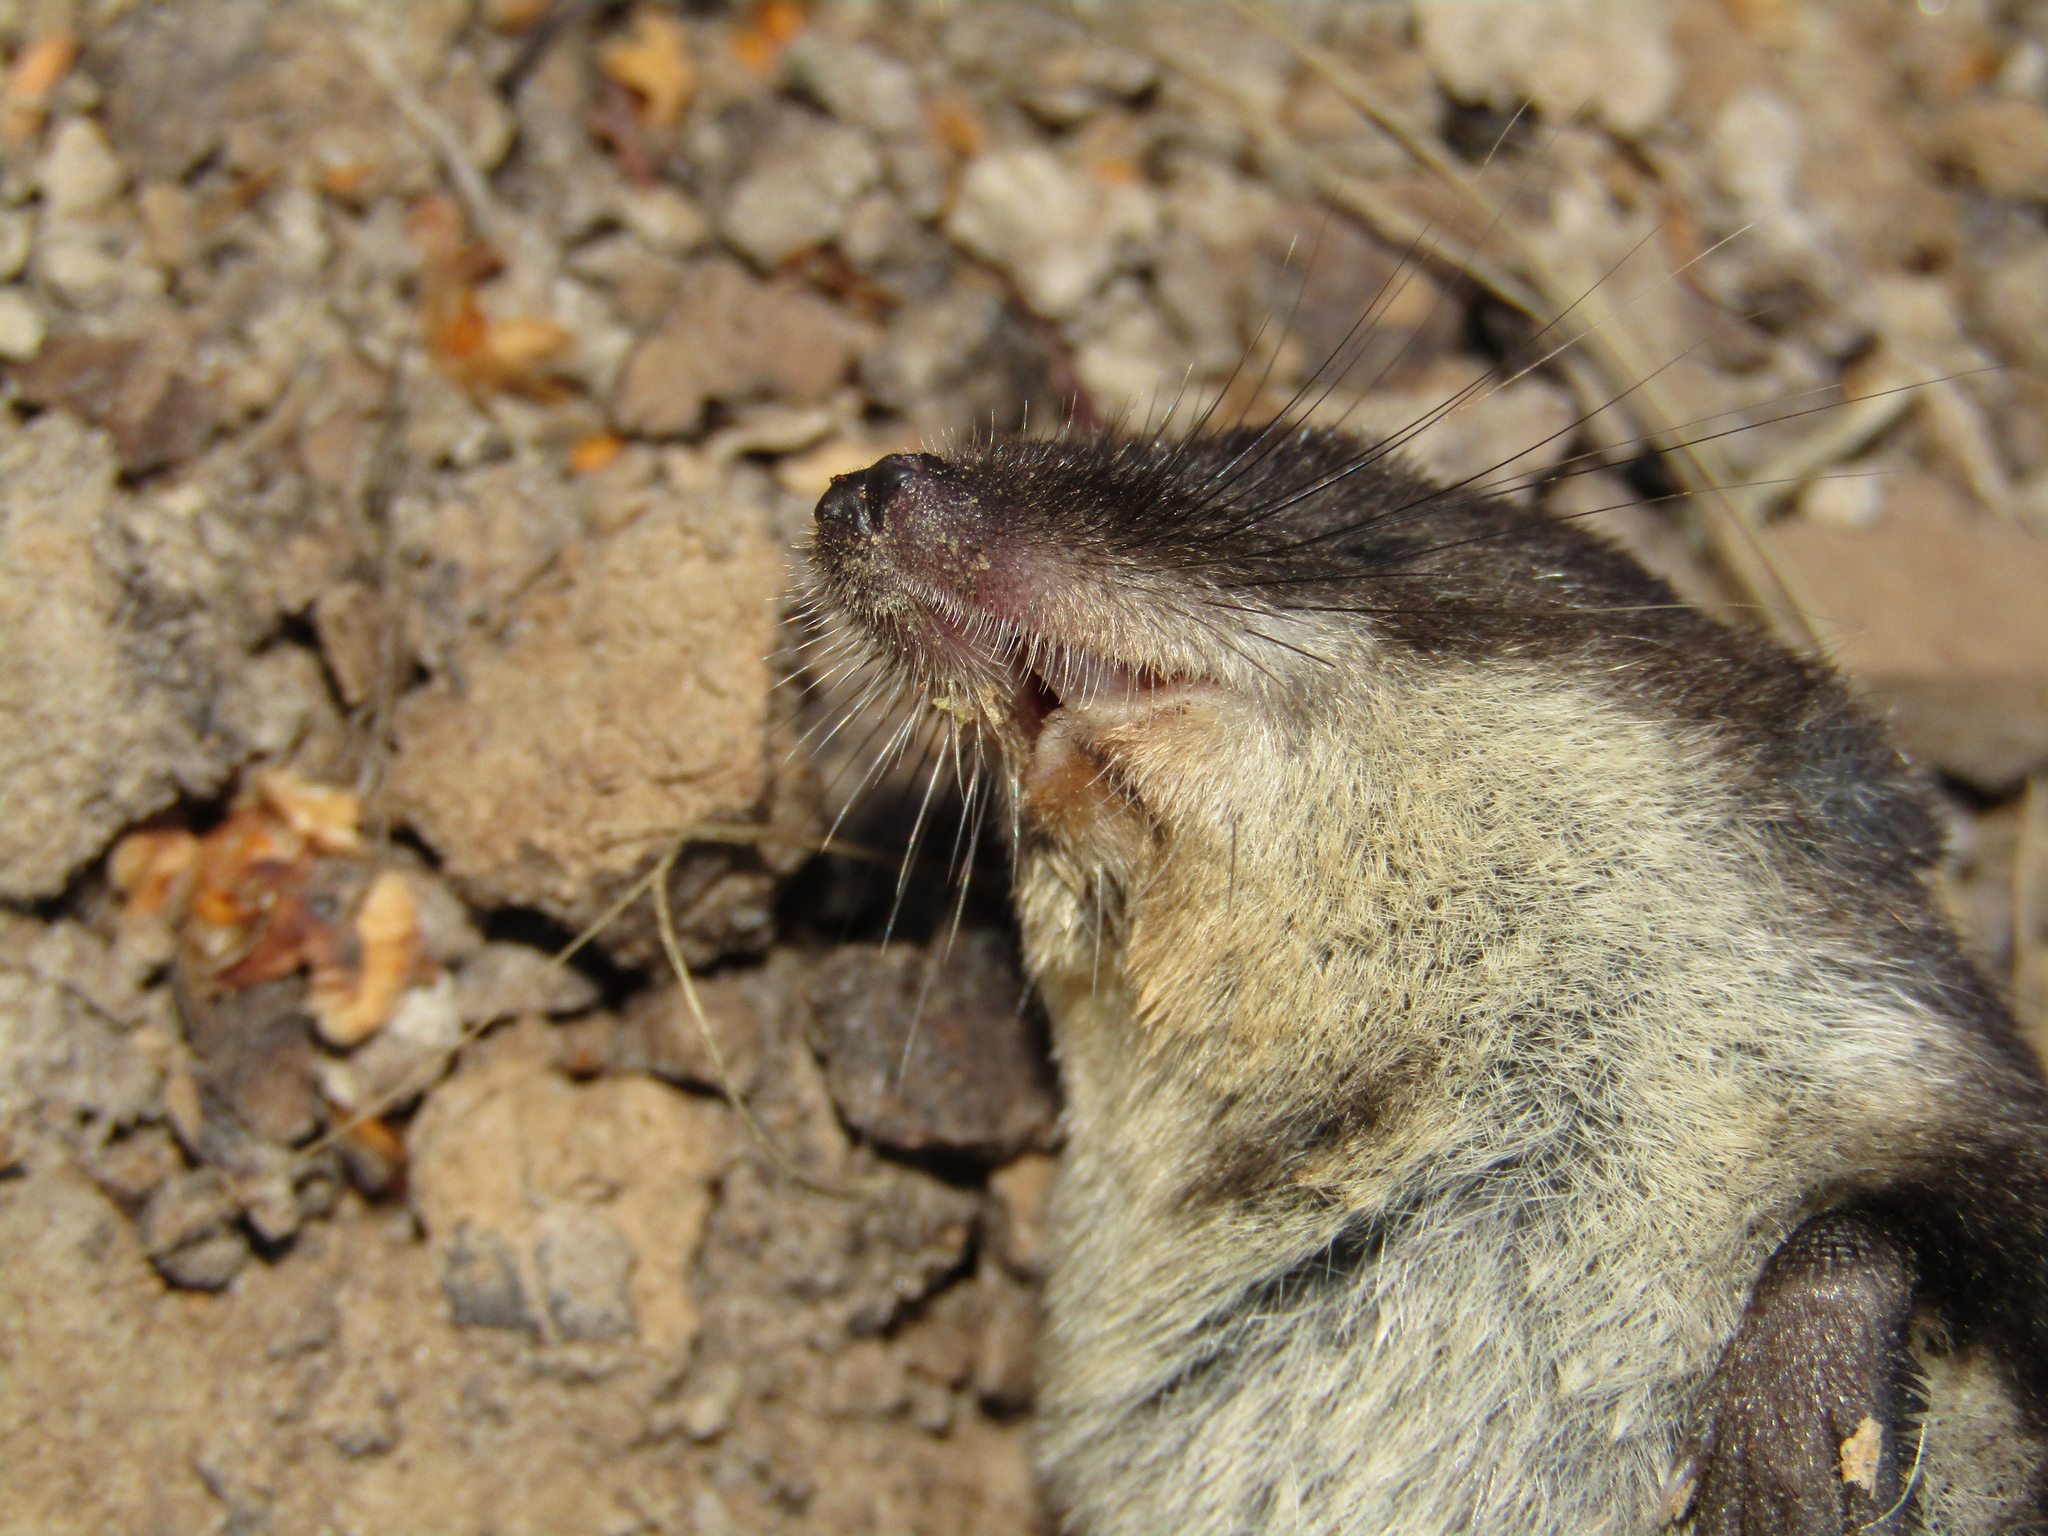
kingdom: Animalia
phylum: Chordata
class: Mammalia
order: Soricomorpha
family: Soricidae
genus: Neomys
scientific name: Neomys fodiens
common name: Eurasian water shrew
